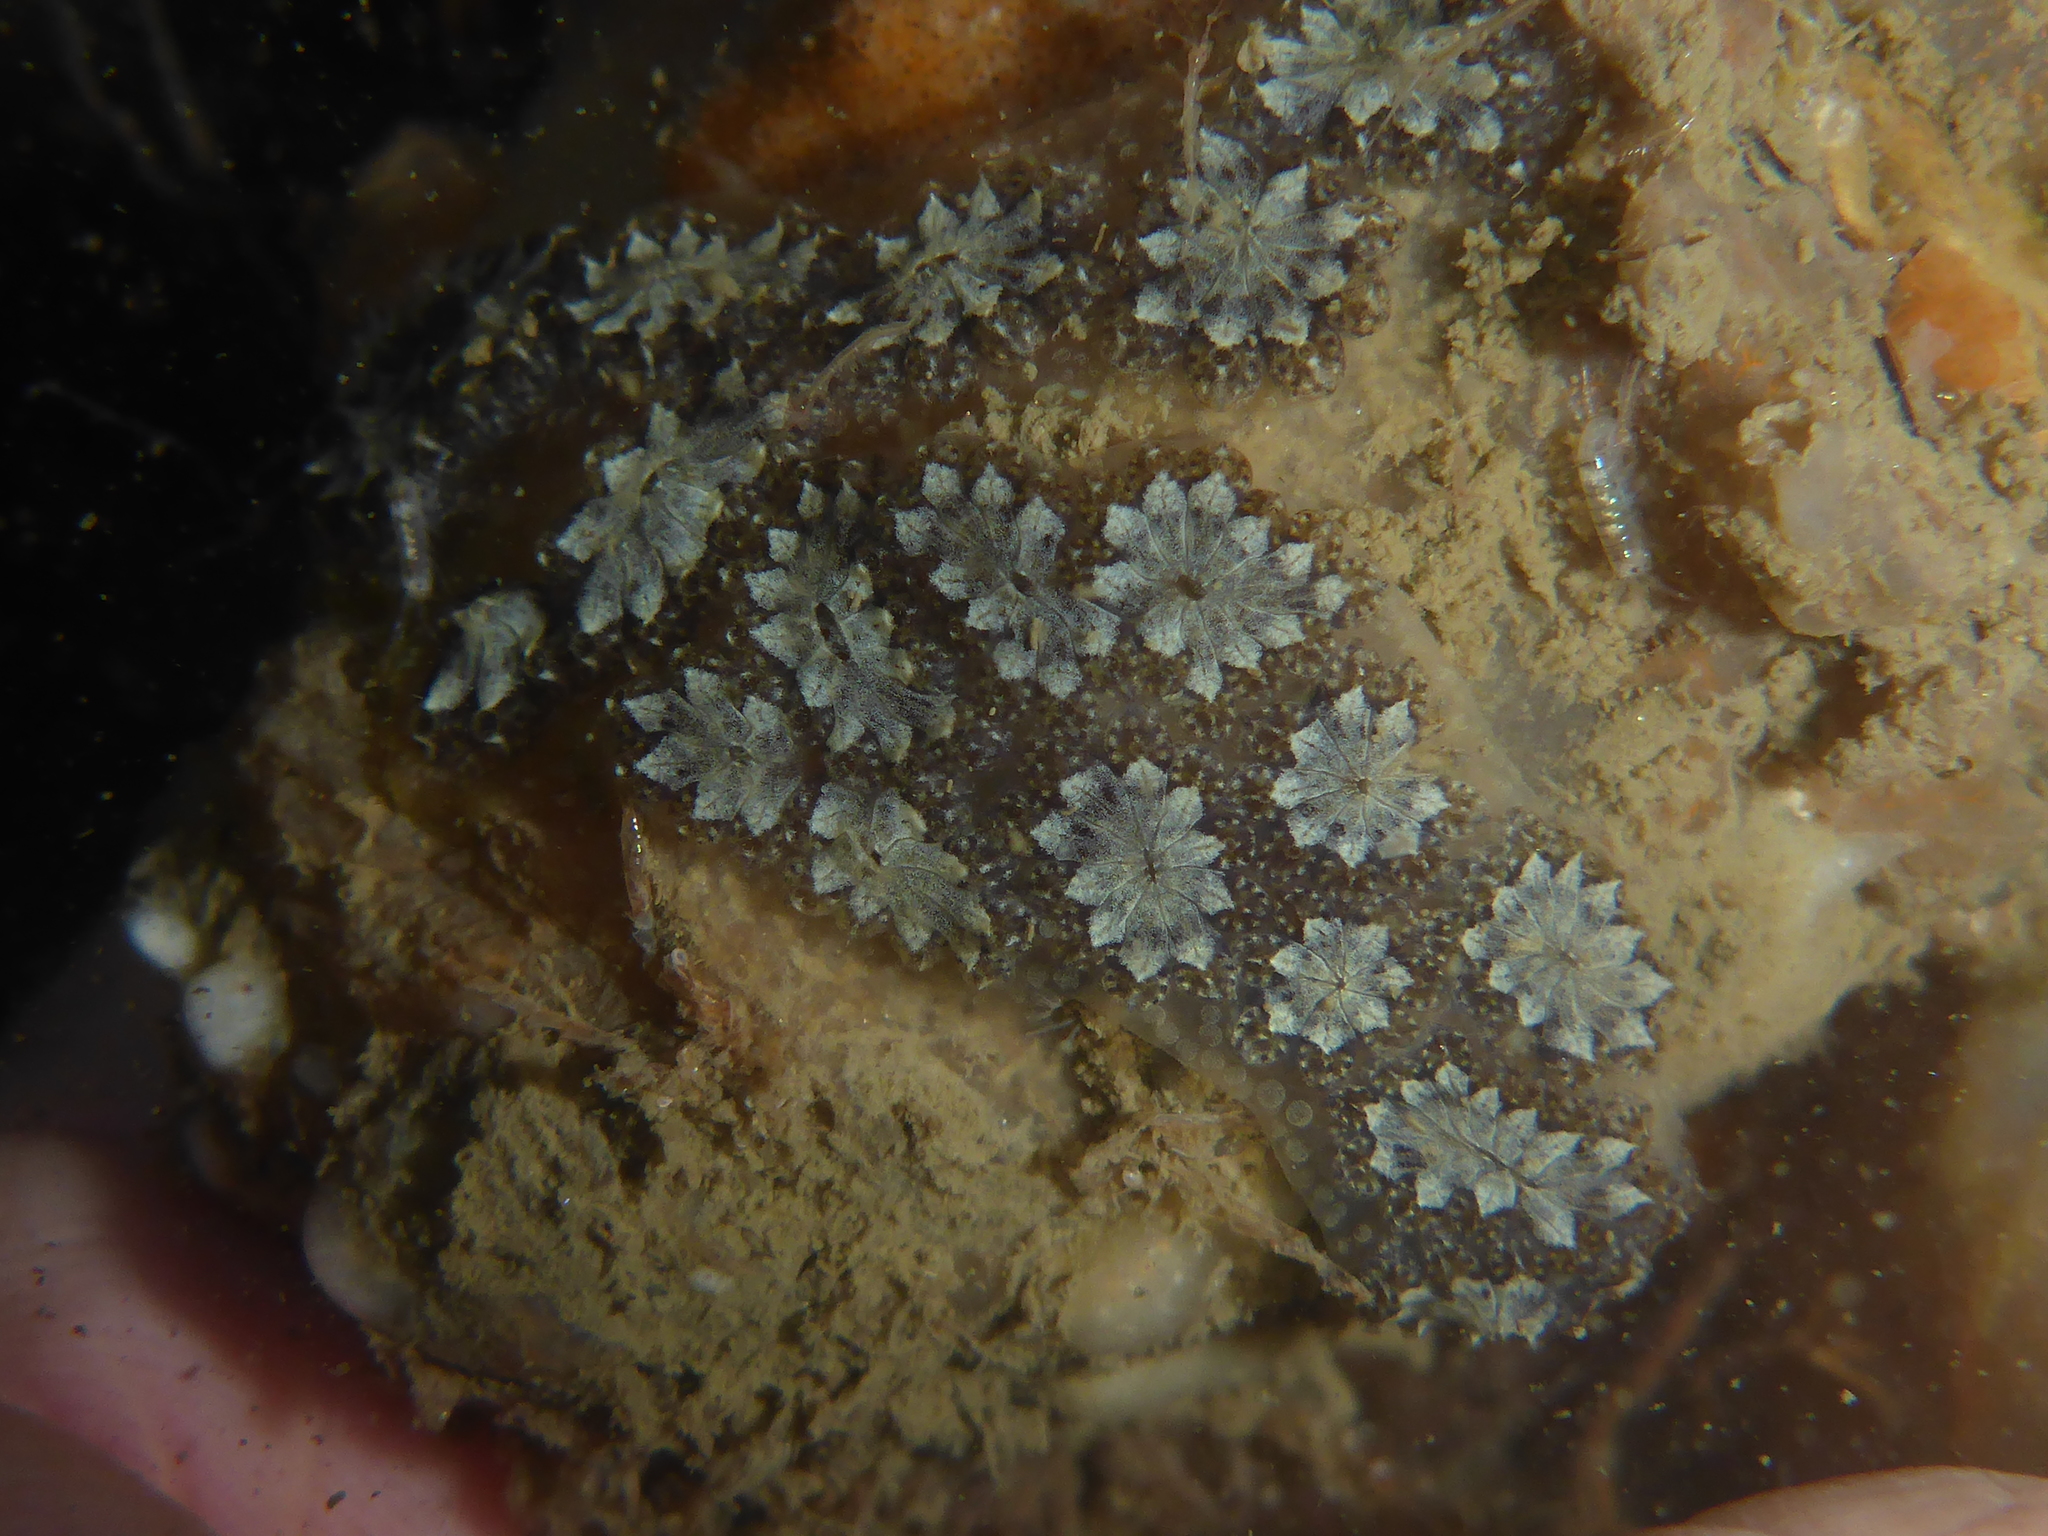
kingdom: Animalia
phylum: Chordata
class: Ascidiacea
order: Stolidobranchia
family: Styelidae
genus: Botryllus
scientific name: Botryllus schlosseri
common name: Golden star tunicate
